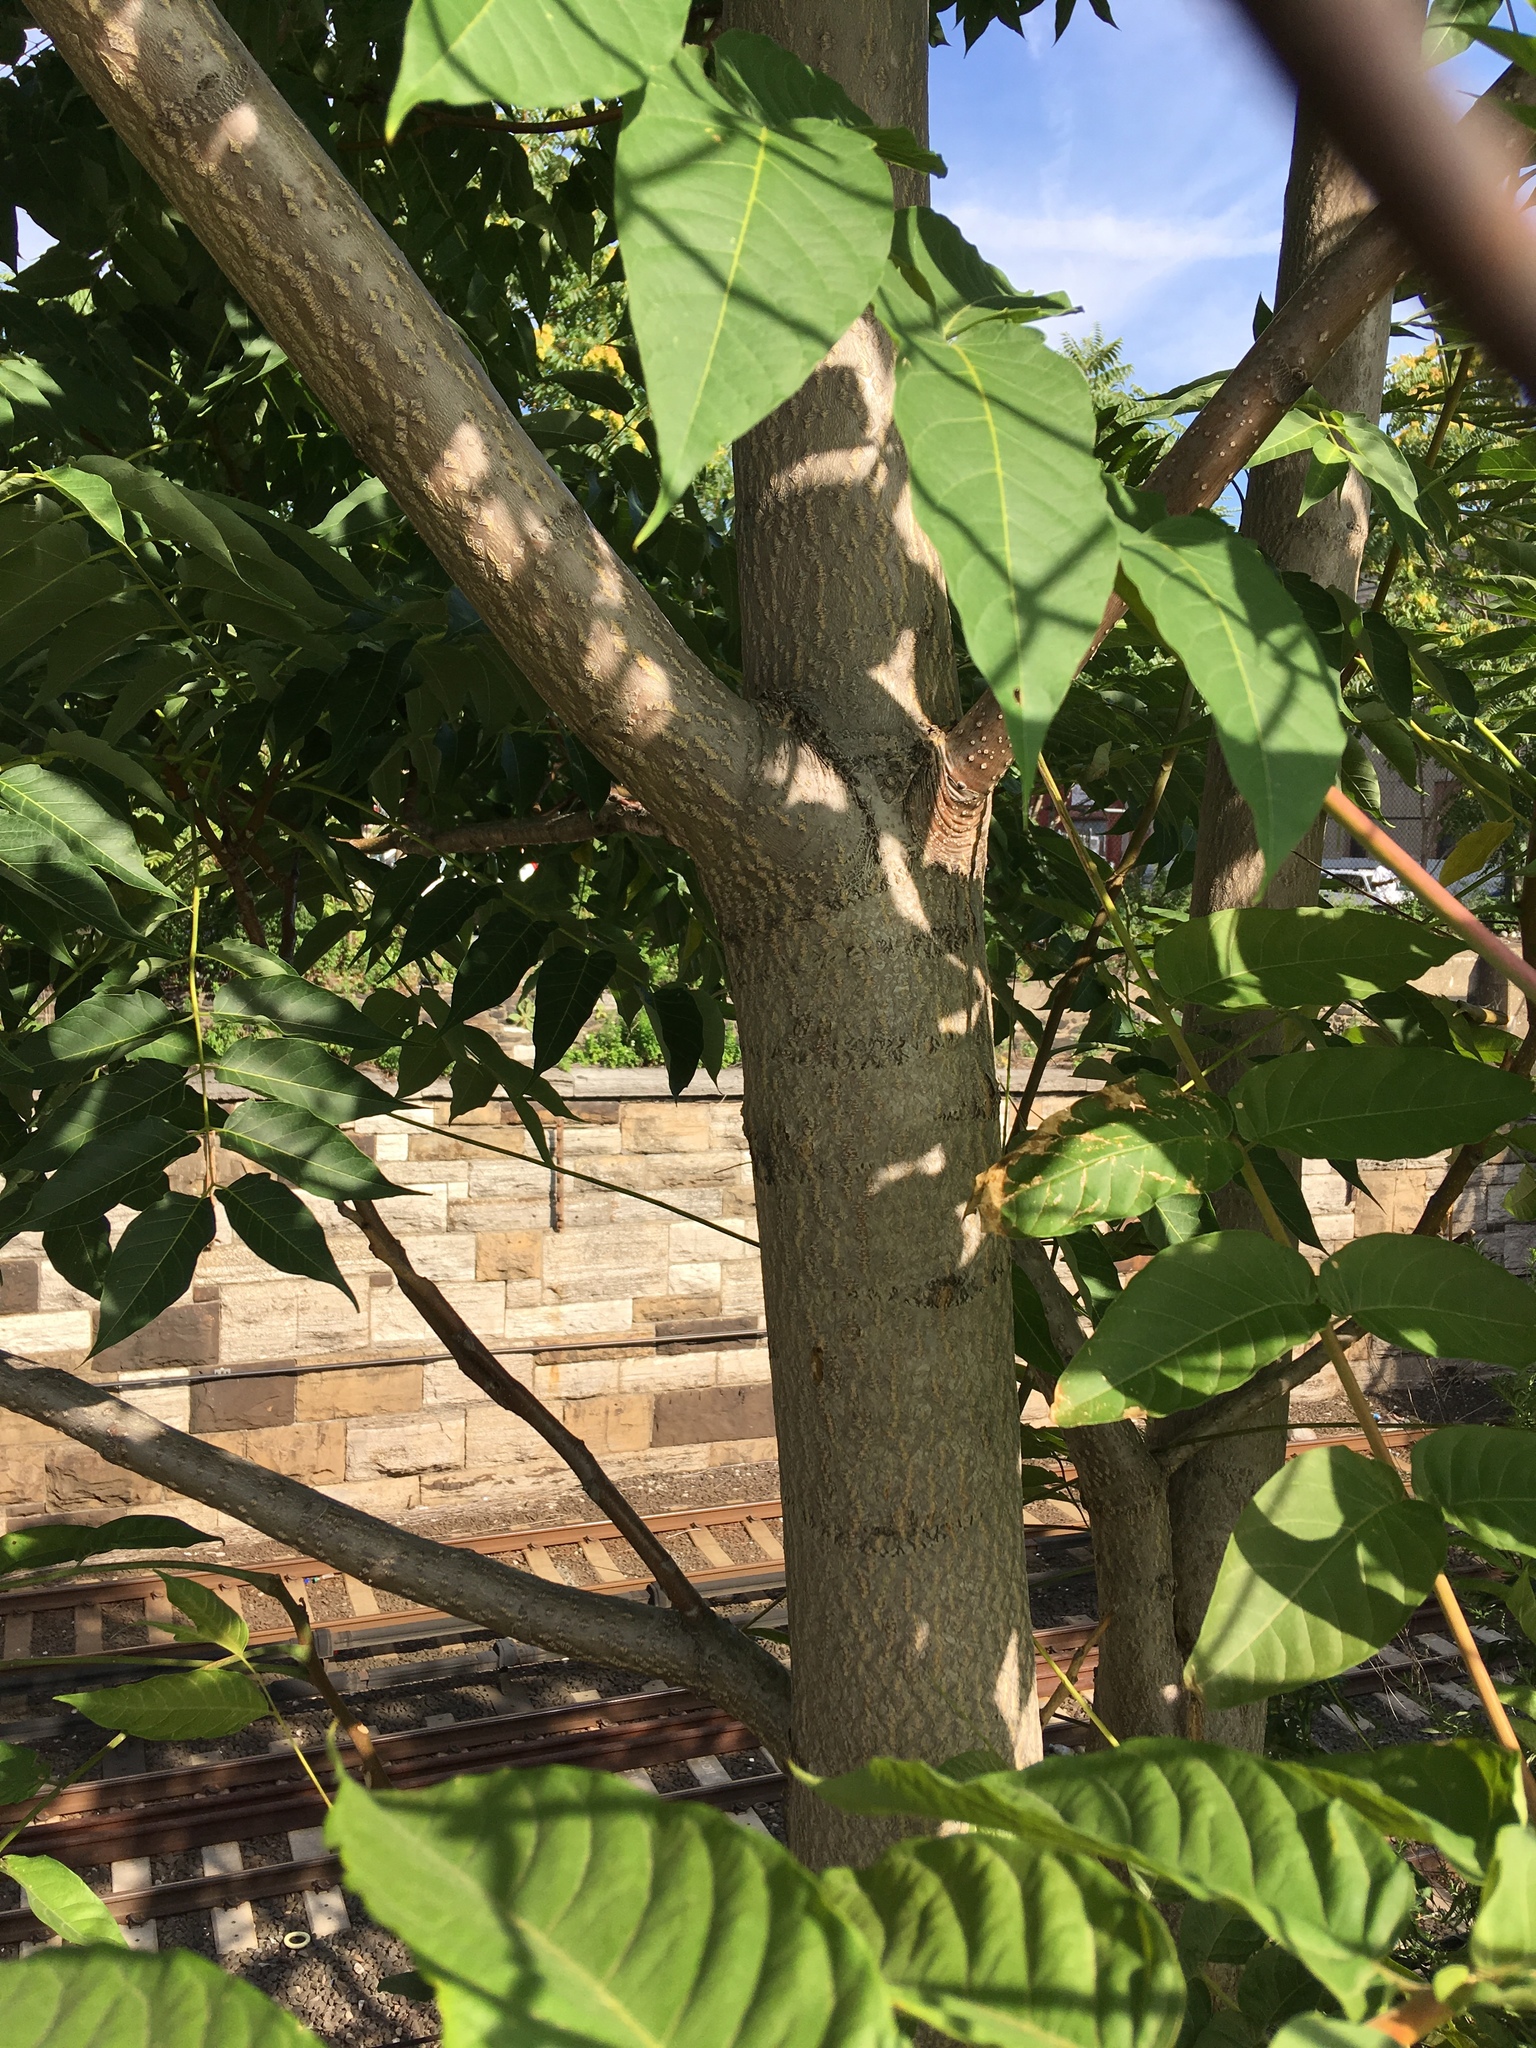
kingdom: Plantae
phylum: Tracheophyta
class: Magnoliopsida
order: Sapindales
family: Simaroubaceae
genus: Ailanthus
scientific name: Ailanthus altissima
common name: Tree-of-heaven
